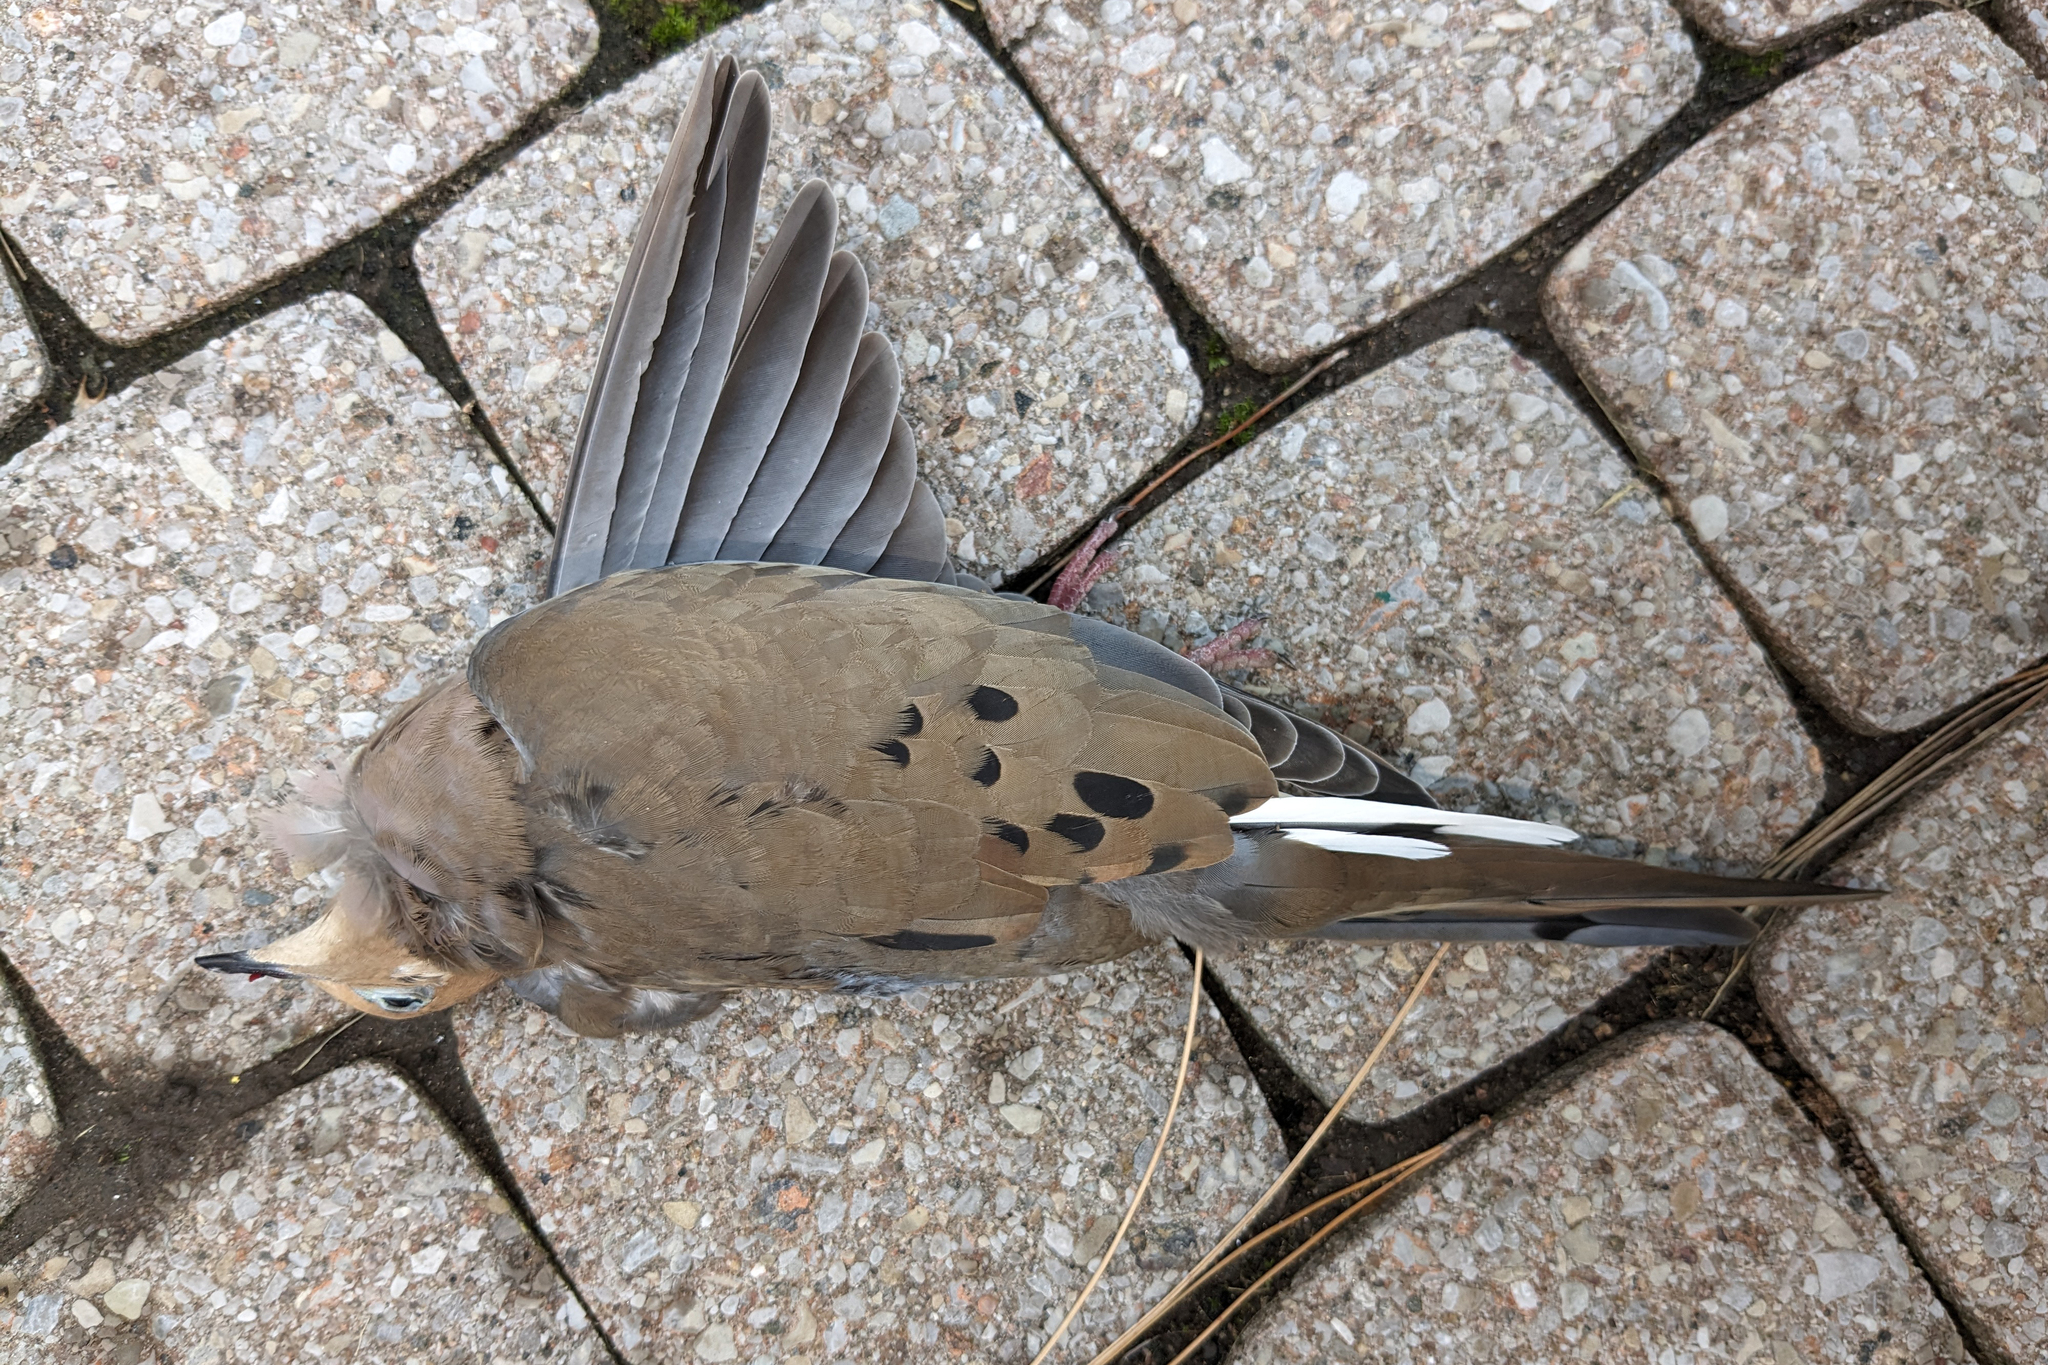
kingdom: Animalia
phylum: Chordata
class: Aves
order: Columbiformes
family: Columbidae
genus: Zenaida
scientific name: Zenaida macroura
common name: Mourning dove
